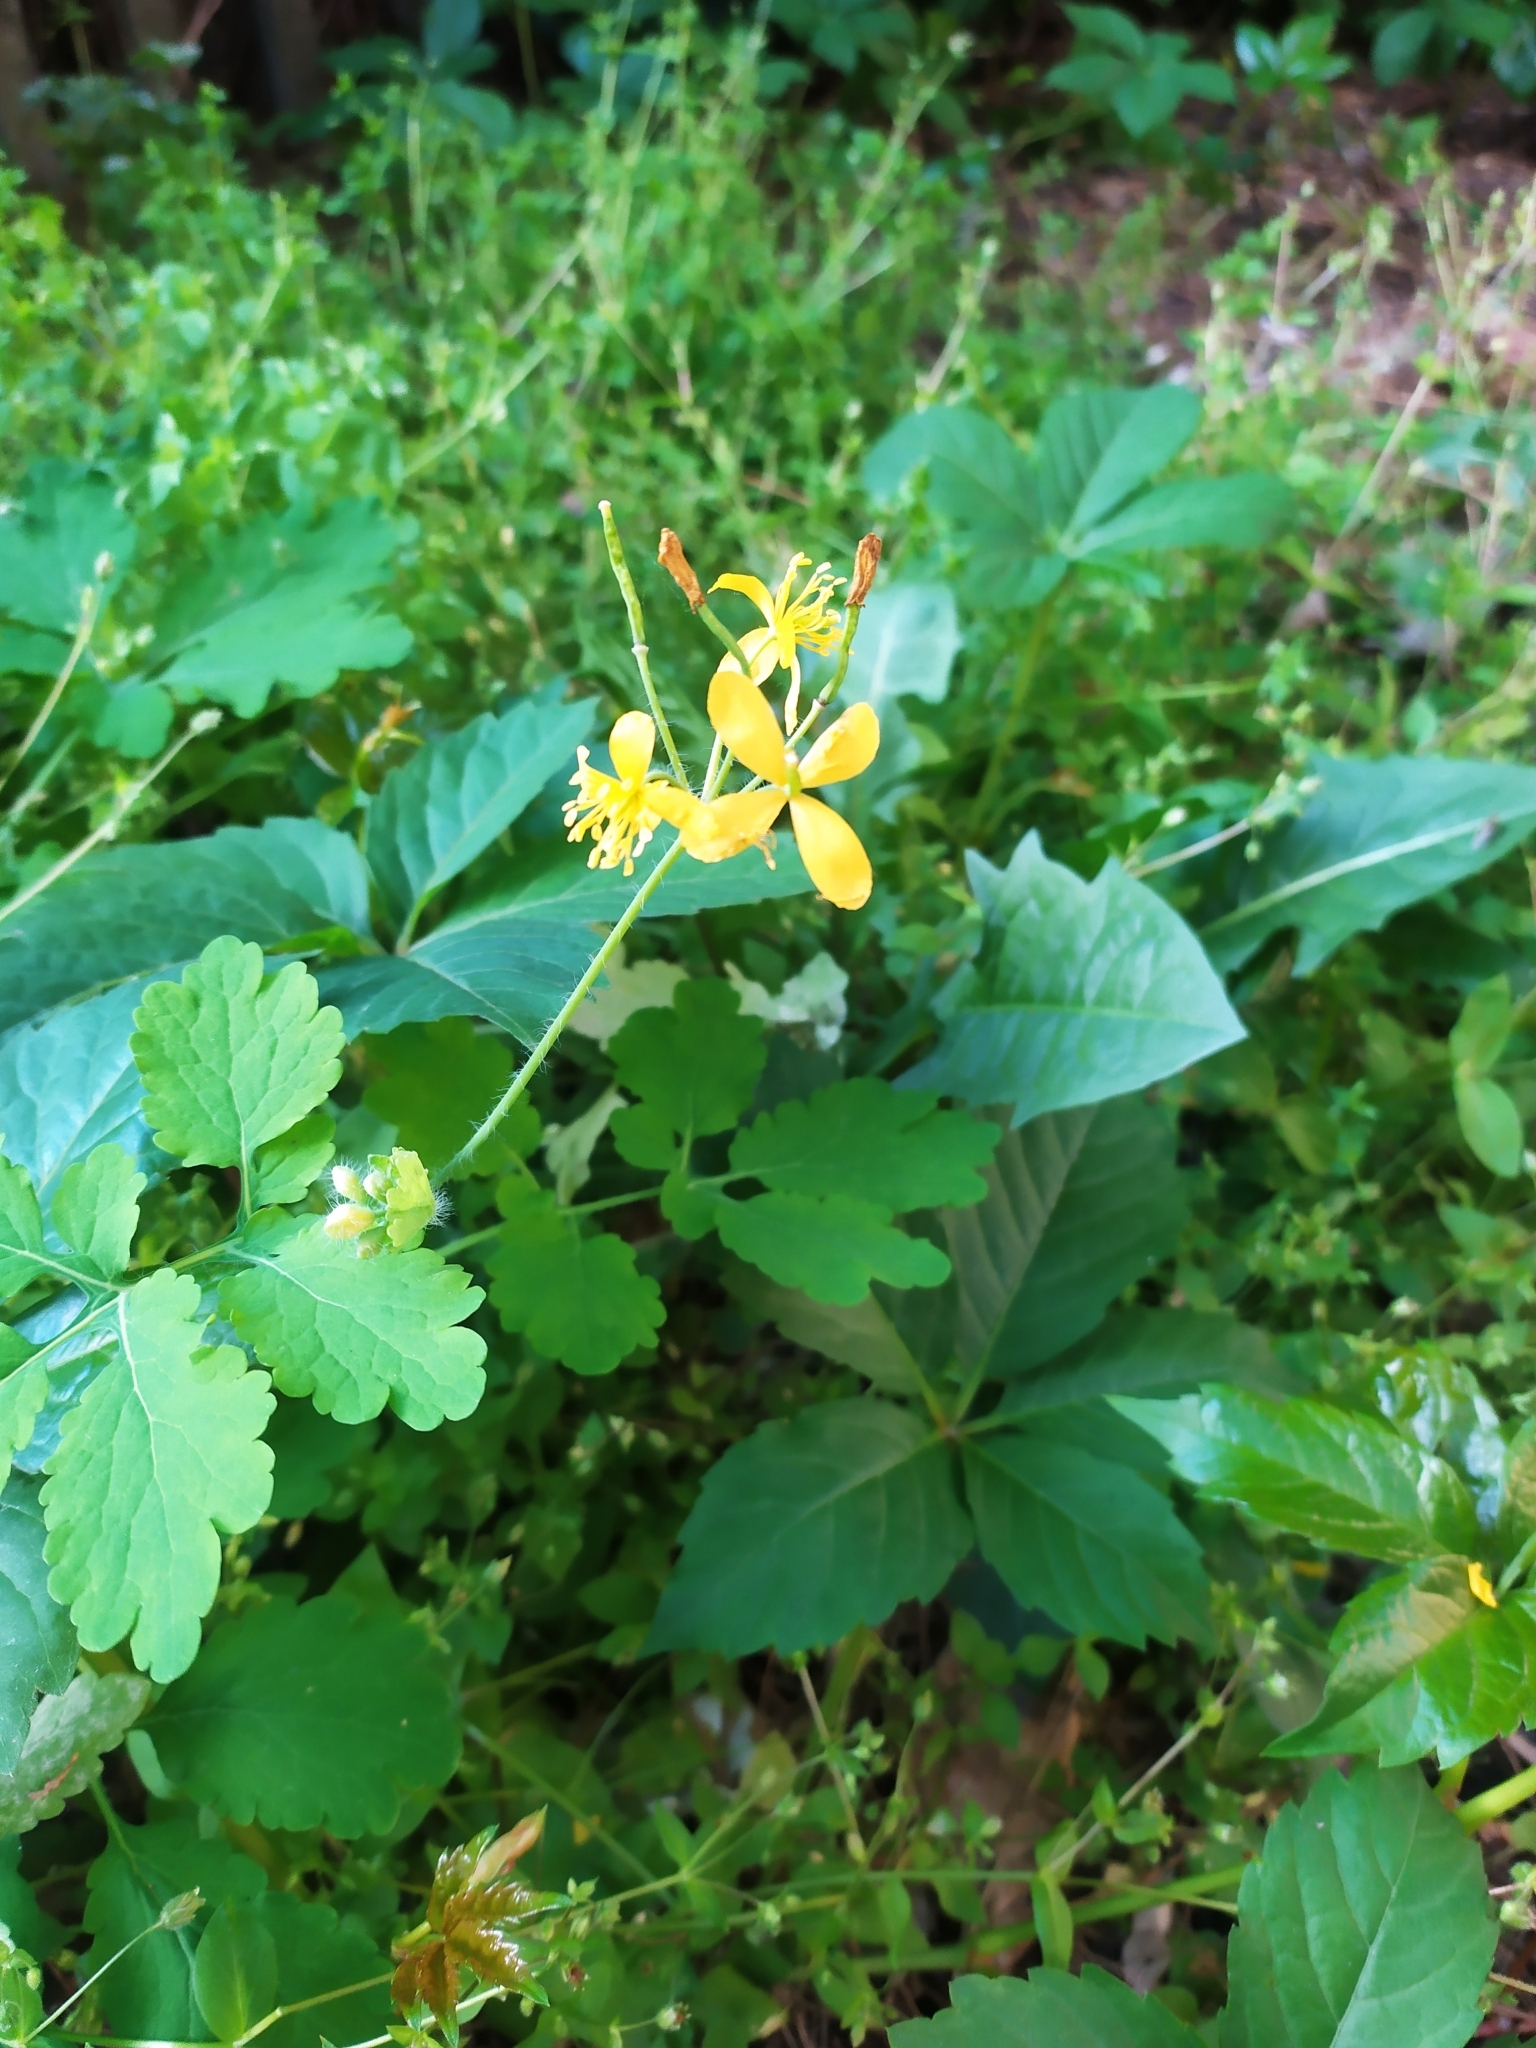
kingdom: Plantae
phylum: Tracheophyta
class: Magnoliopsida
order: Ranunculales
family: Papaveraceae
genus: Chelidonium
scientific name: Chelidonium majus
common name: Greater celandine
